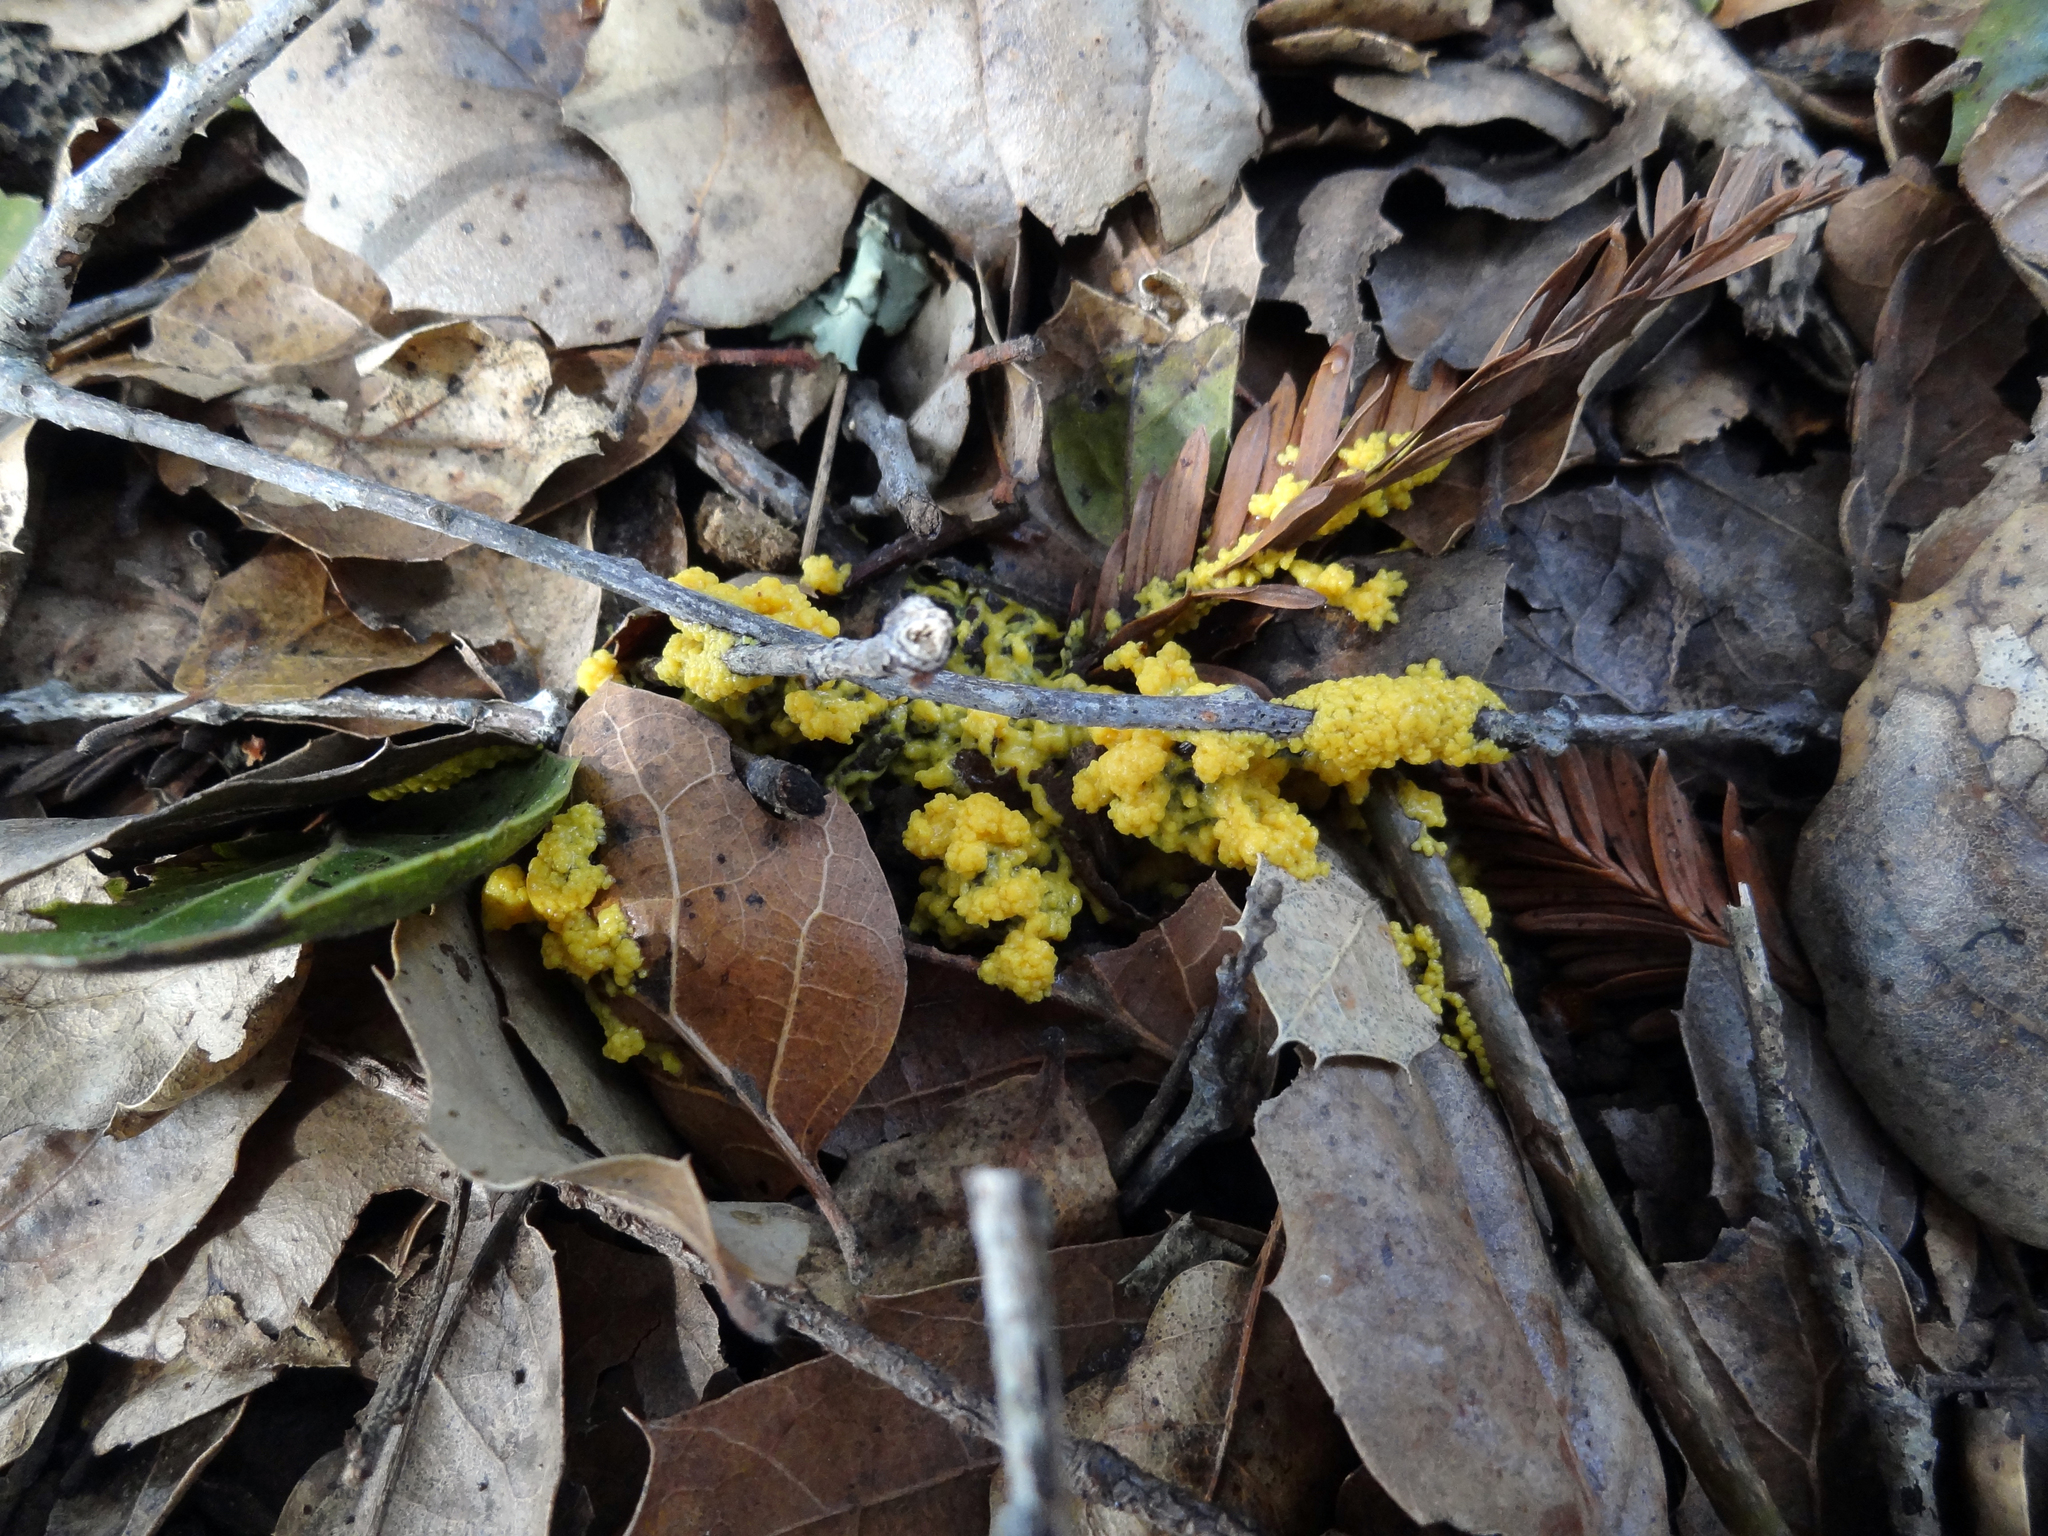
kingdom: Protozoa
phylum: Mycetozoa
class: Myxomycetes
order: Physarales
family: Physaraceae
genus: Leocarpus
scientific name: Leocarpus fragilis
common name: Insect-egg slime
